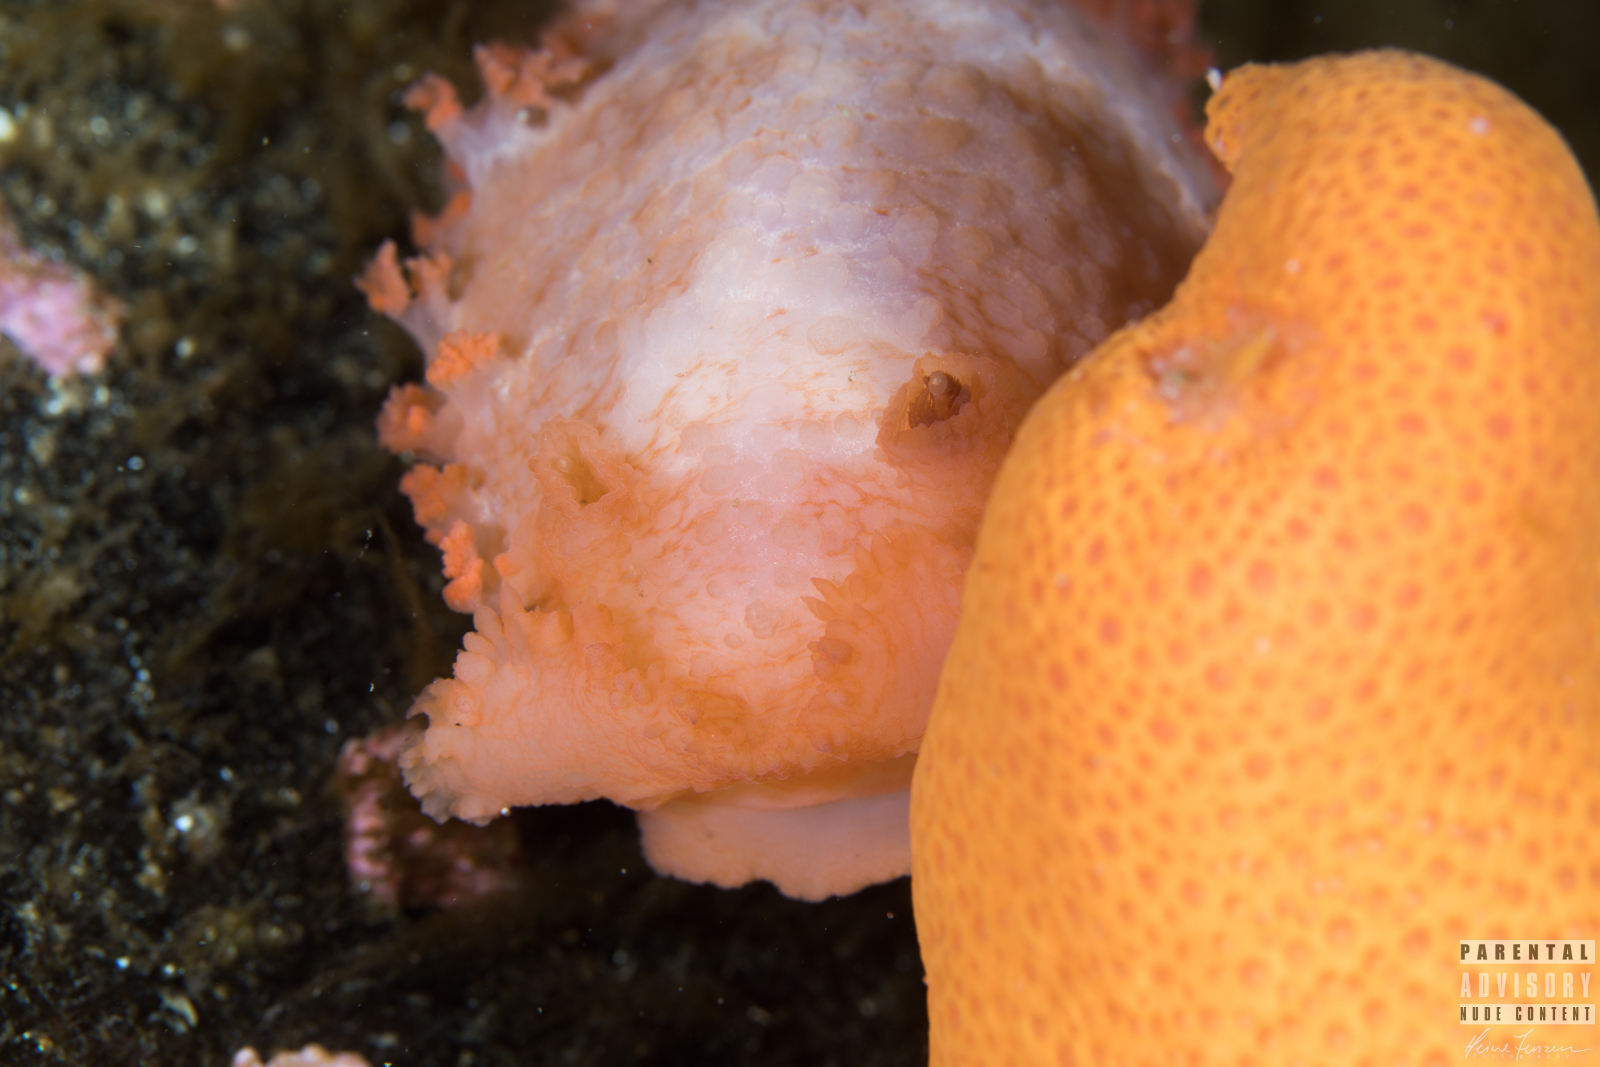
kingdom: Animalia
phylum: Mollusca
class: Gastropoda
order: Nudibranchia
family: Tritoniidae
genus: Tritonia
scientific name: Tritonia hombergii
